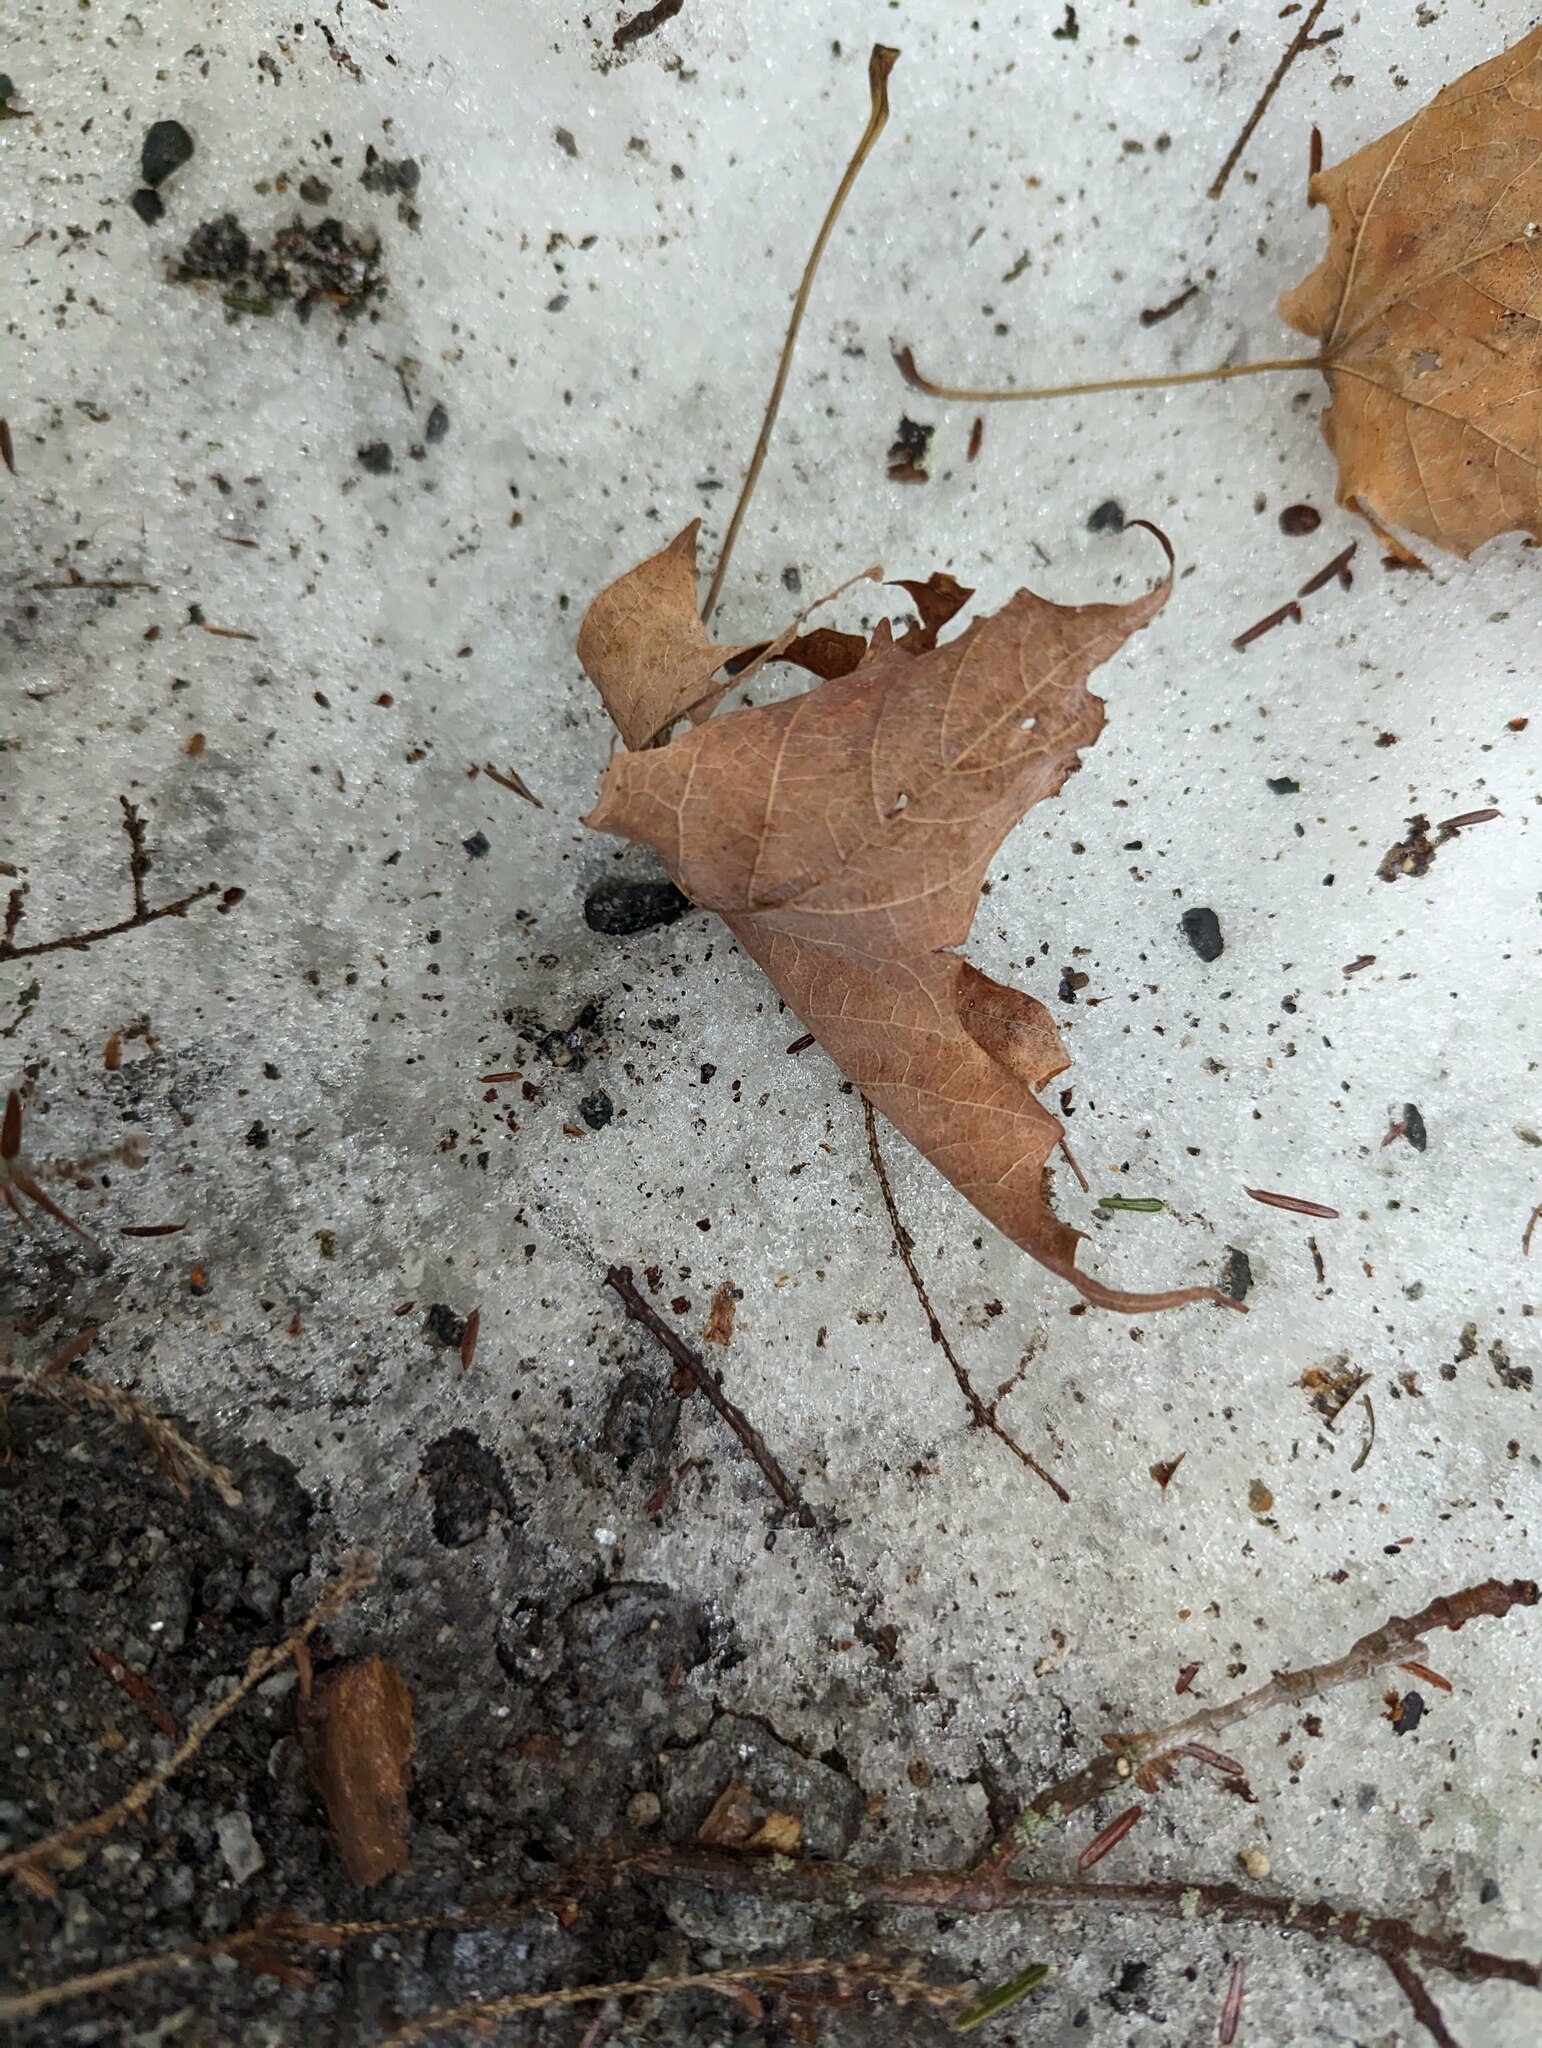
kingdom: Plantae
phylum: Tracheophyta
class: Magnoliopsida
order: Sapindales
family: Sapindaceae
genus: Acer
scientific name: Acer saccharum
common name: Sugar maple
